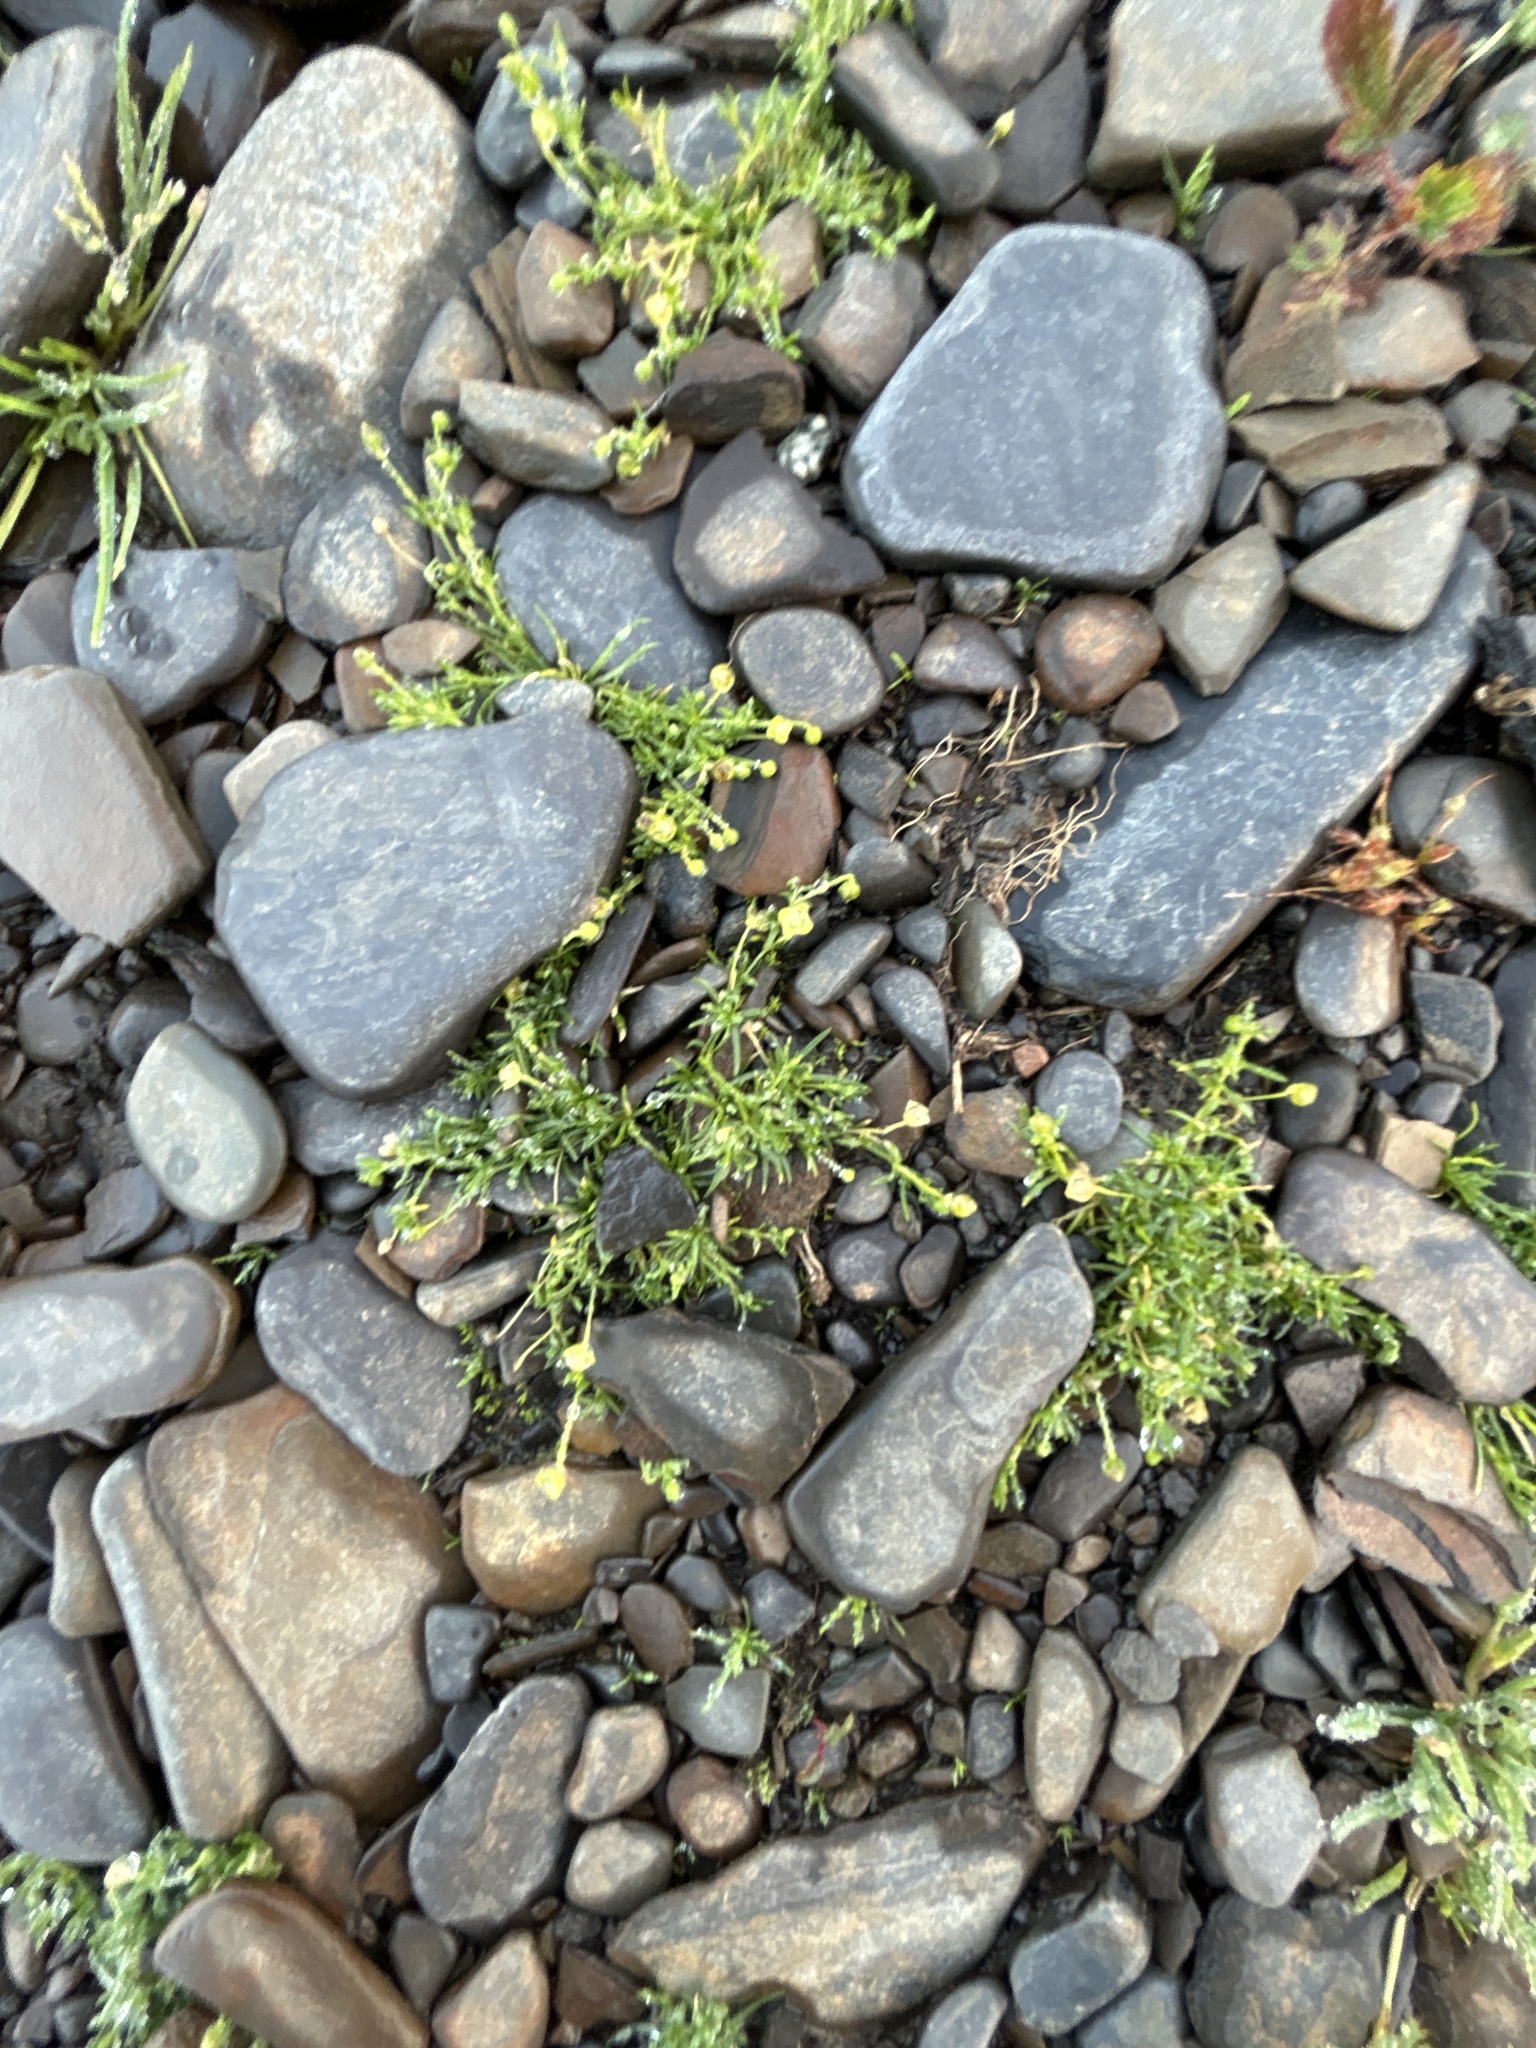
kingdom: Plantae
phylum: Tracheophyta
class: Magnoliopsida
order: Caryophyllales
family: Caryophyllaceae
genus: Sagina
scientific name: Sagina procumbens
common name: Procumbent pearlwort
